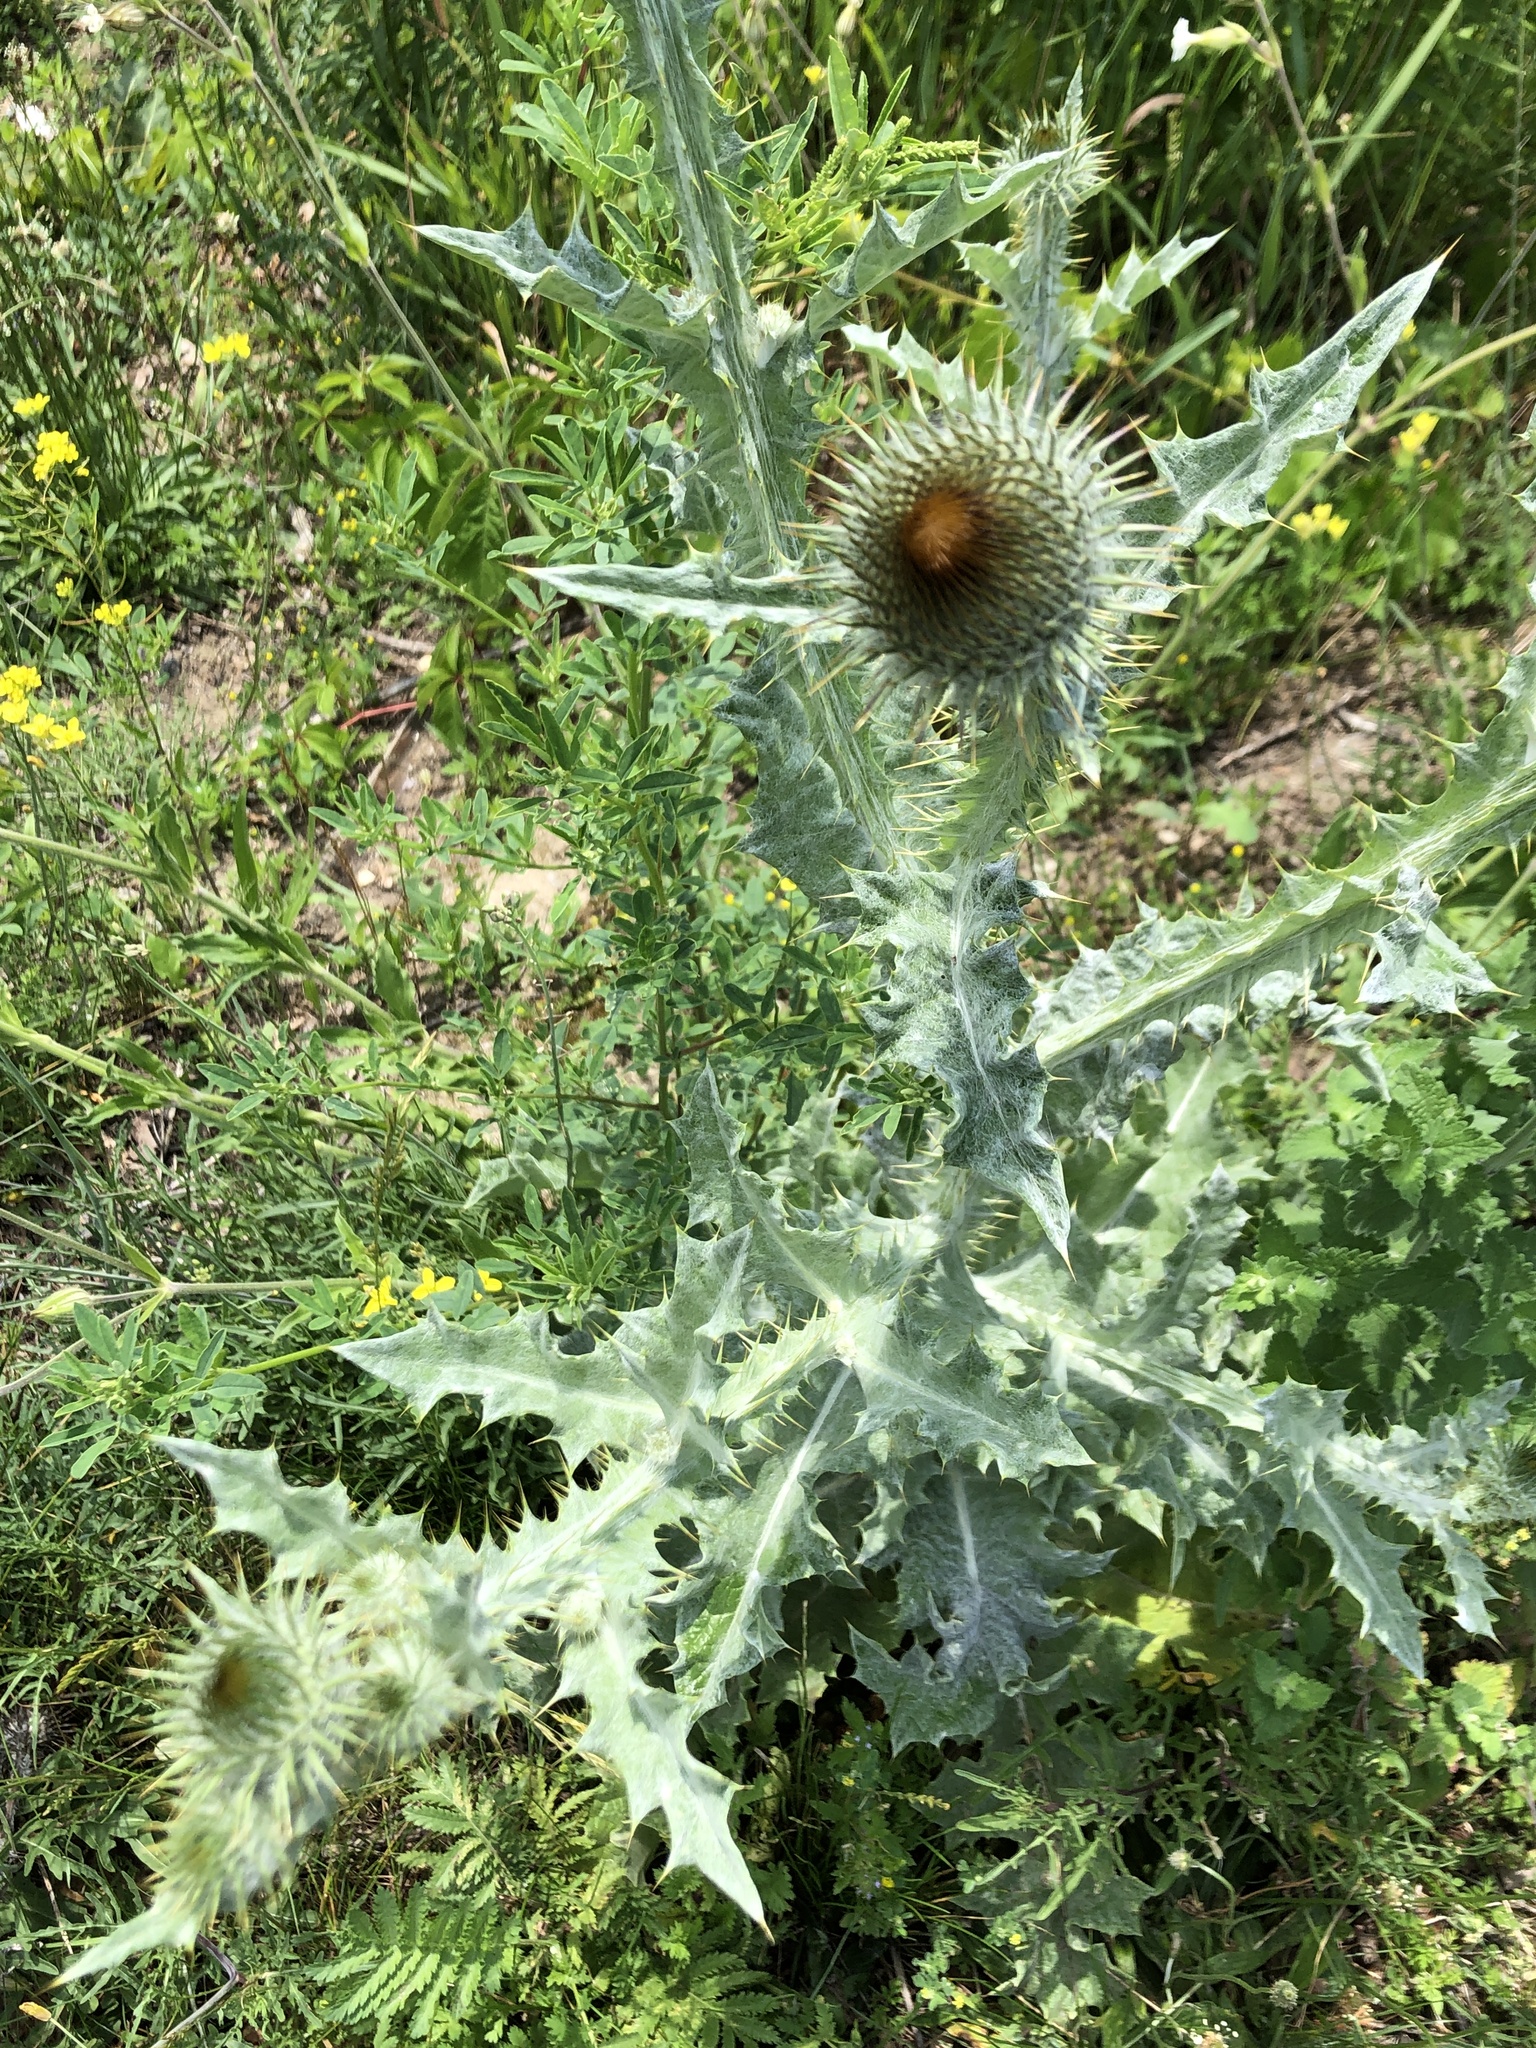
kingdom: Plantae
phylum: Tracheophyta
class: Magnoliopsida
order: Asterales
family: Asteraceae
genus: Onopordum
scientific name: Onopordum acanthium
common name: Scotch thistle
